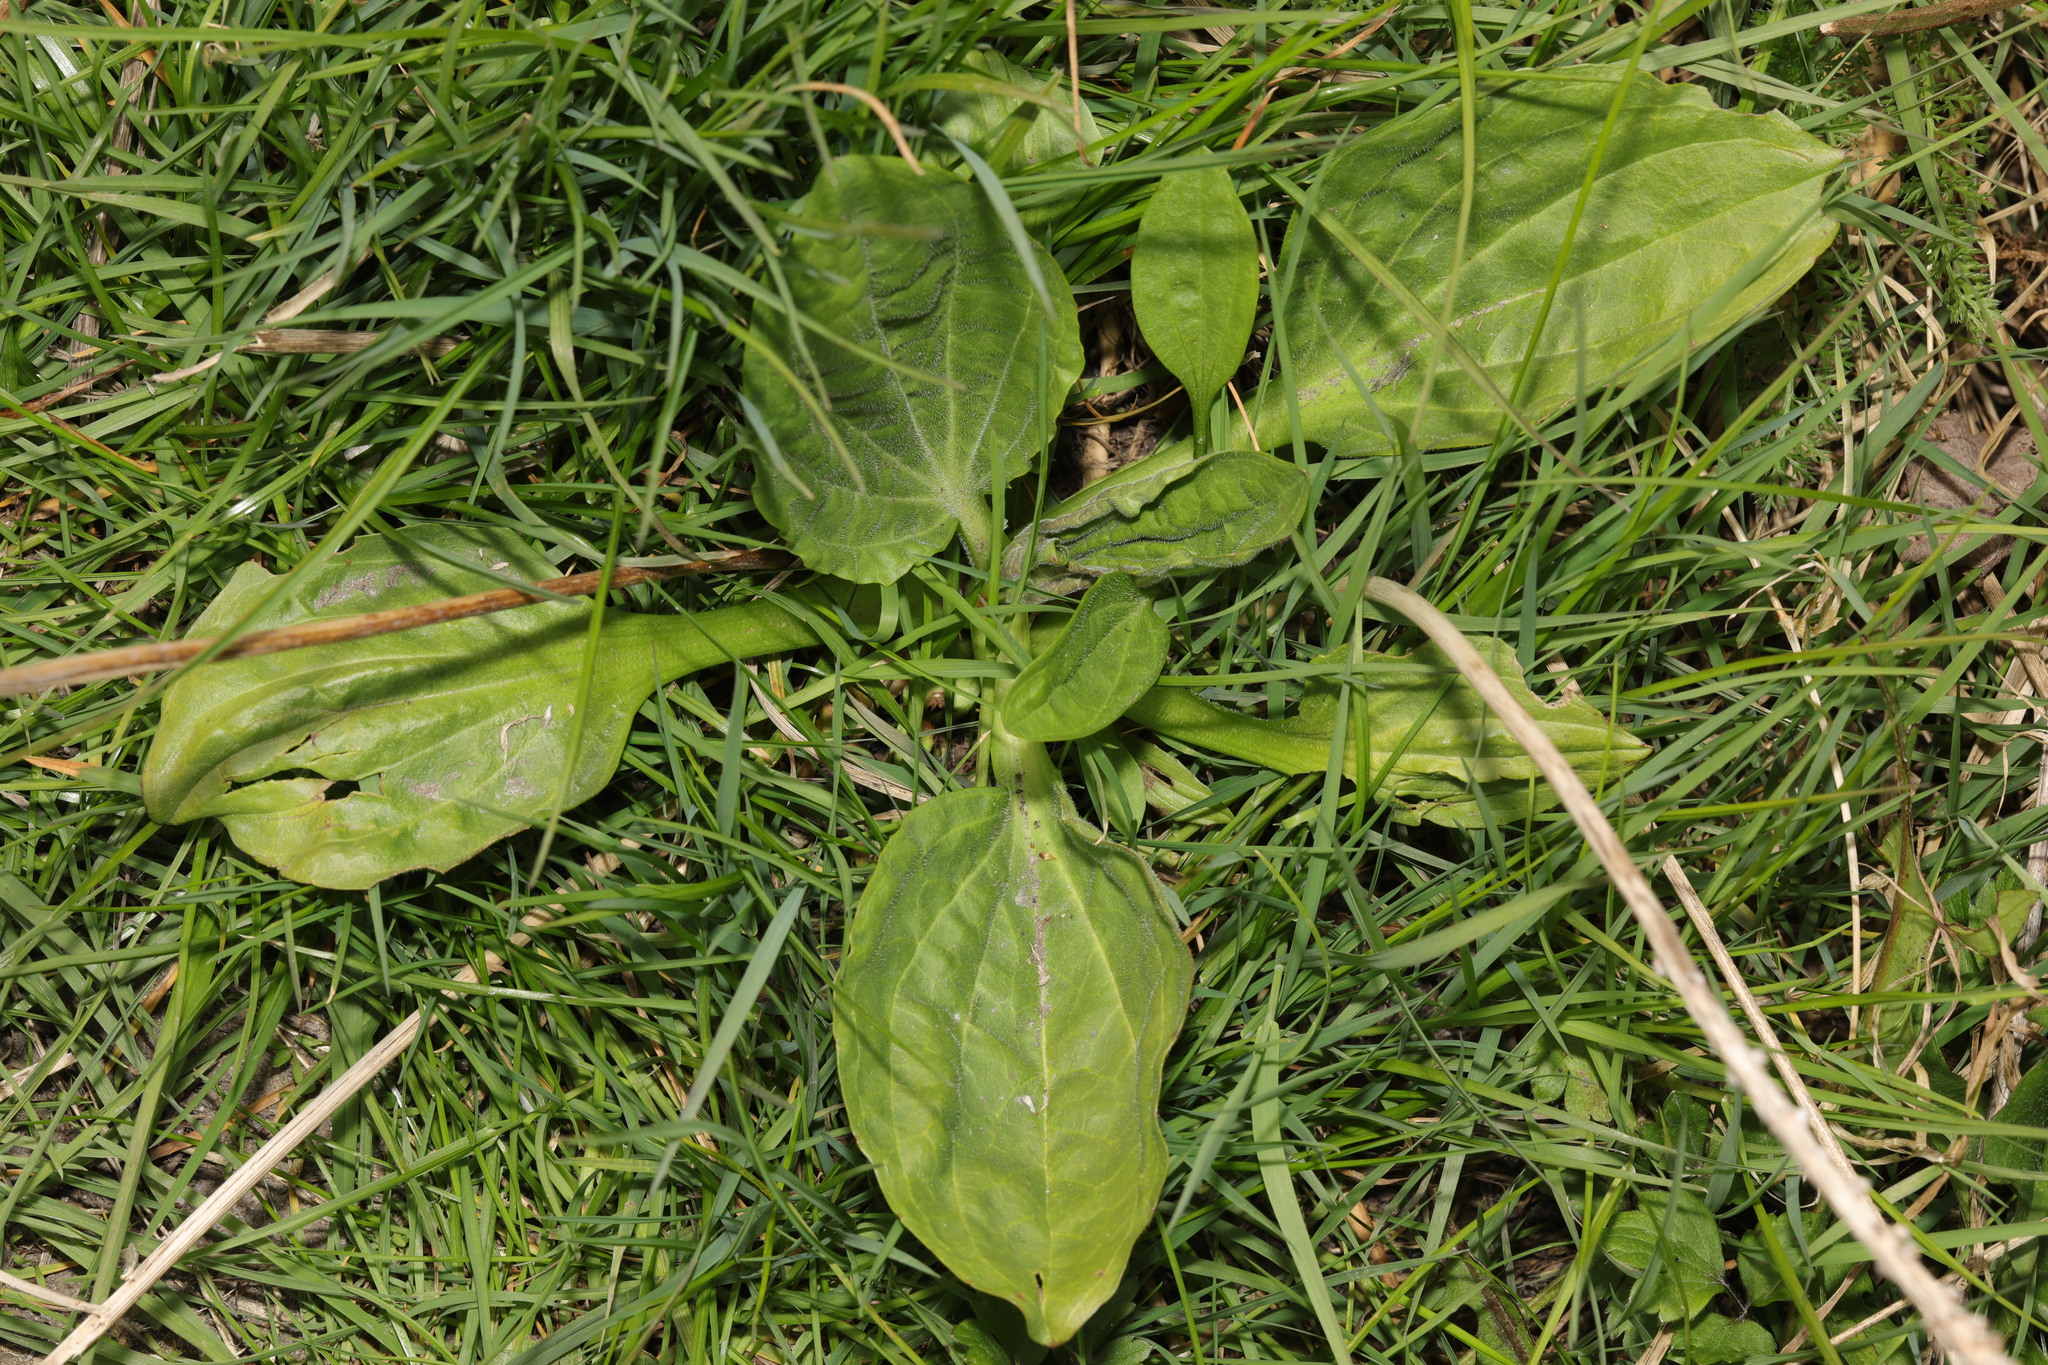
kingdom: Plantae
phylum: Tracheophyta
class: Magnoliopsida
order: Lamiales
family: Plantaginaceae
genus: Plantago
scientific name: Plantago major
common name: Common plantain
